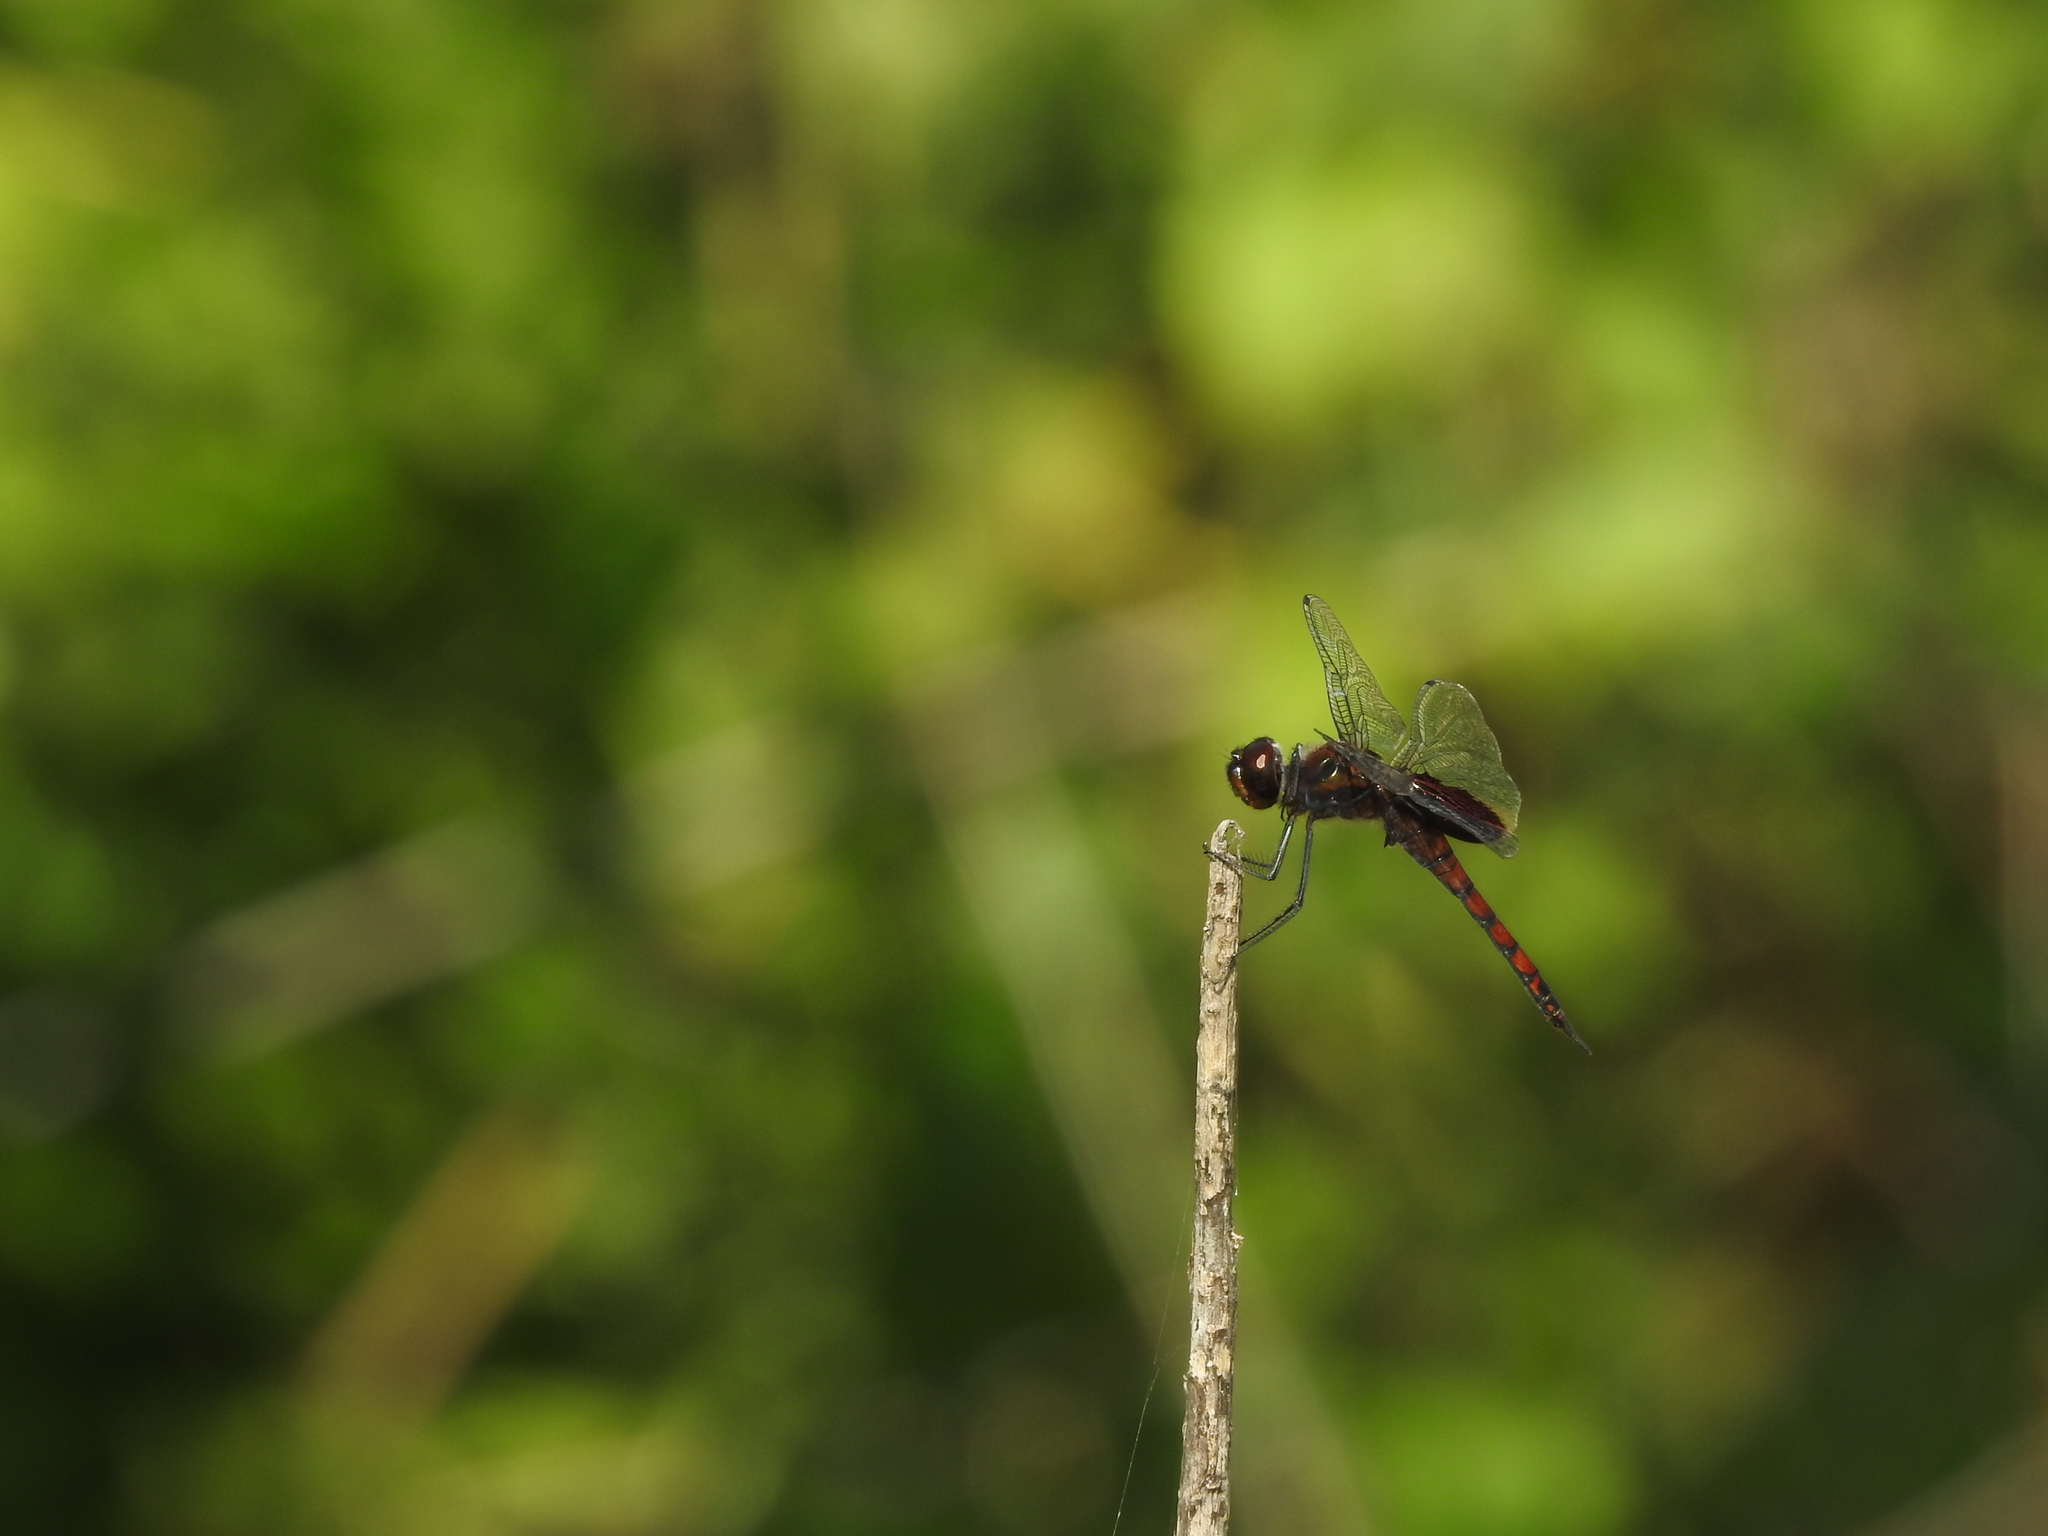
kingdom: Animalia
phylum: Arthropoda
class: Insecta
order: Odonata
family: Libellulidae
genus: Tramea
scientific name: Tramea limbata
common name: Ferruginous glider
